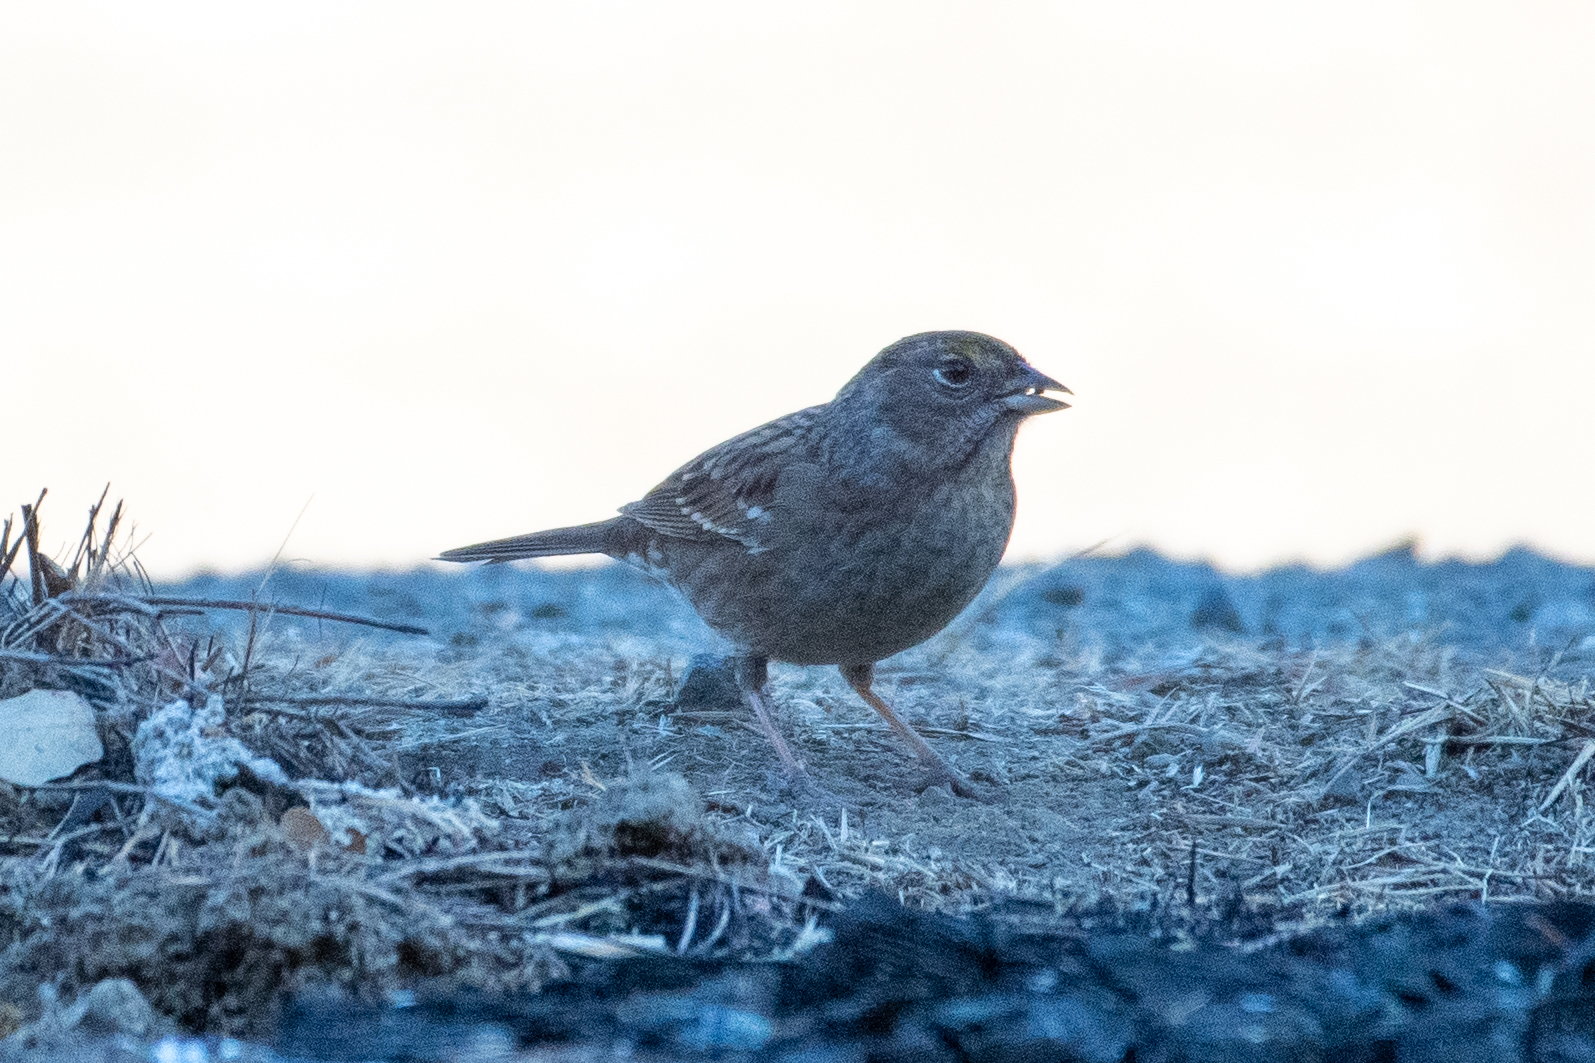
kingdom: Animalia
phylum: Chordata
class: Aves
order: Passeriformes
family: Passerellidae
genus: Zonotrichia
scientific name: Zonotrichia atricapilla
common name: Golden-crowned sparrow
